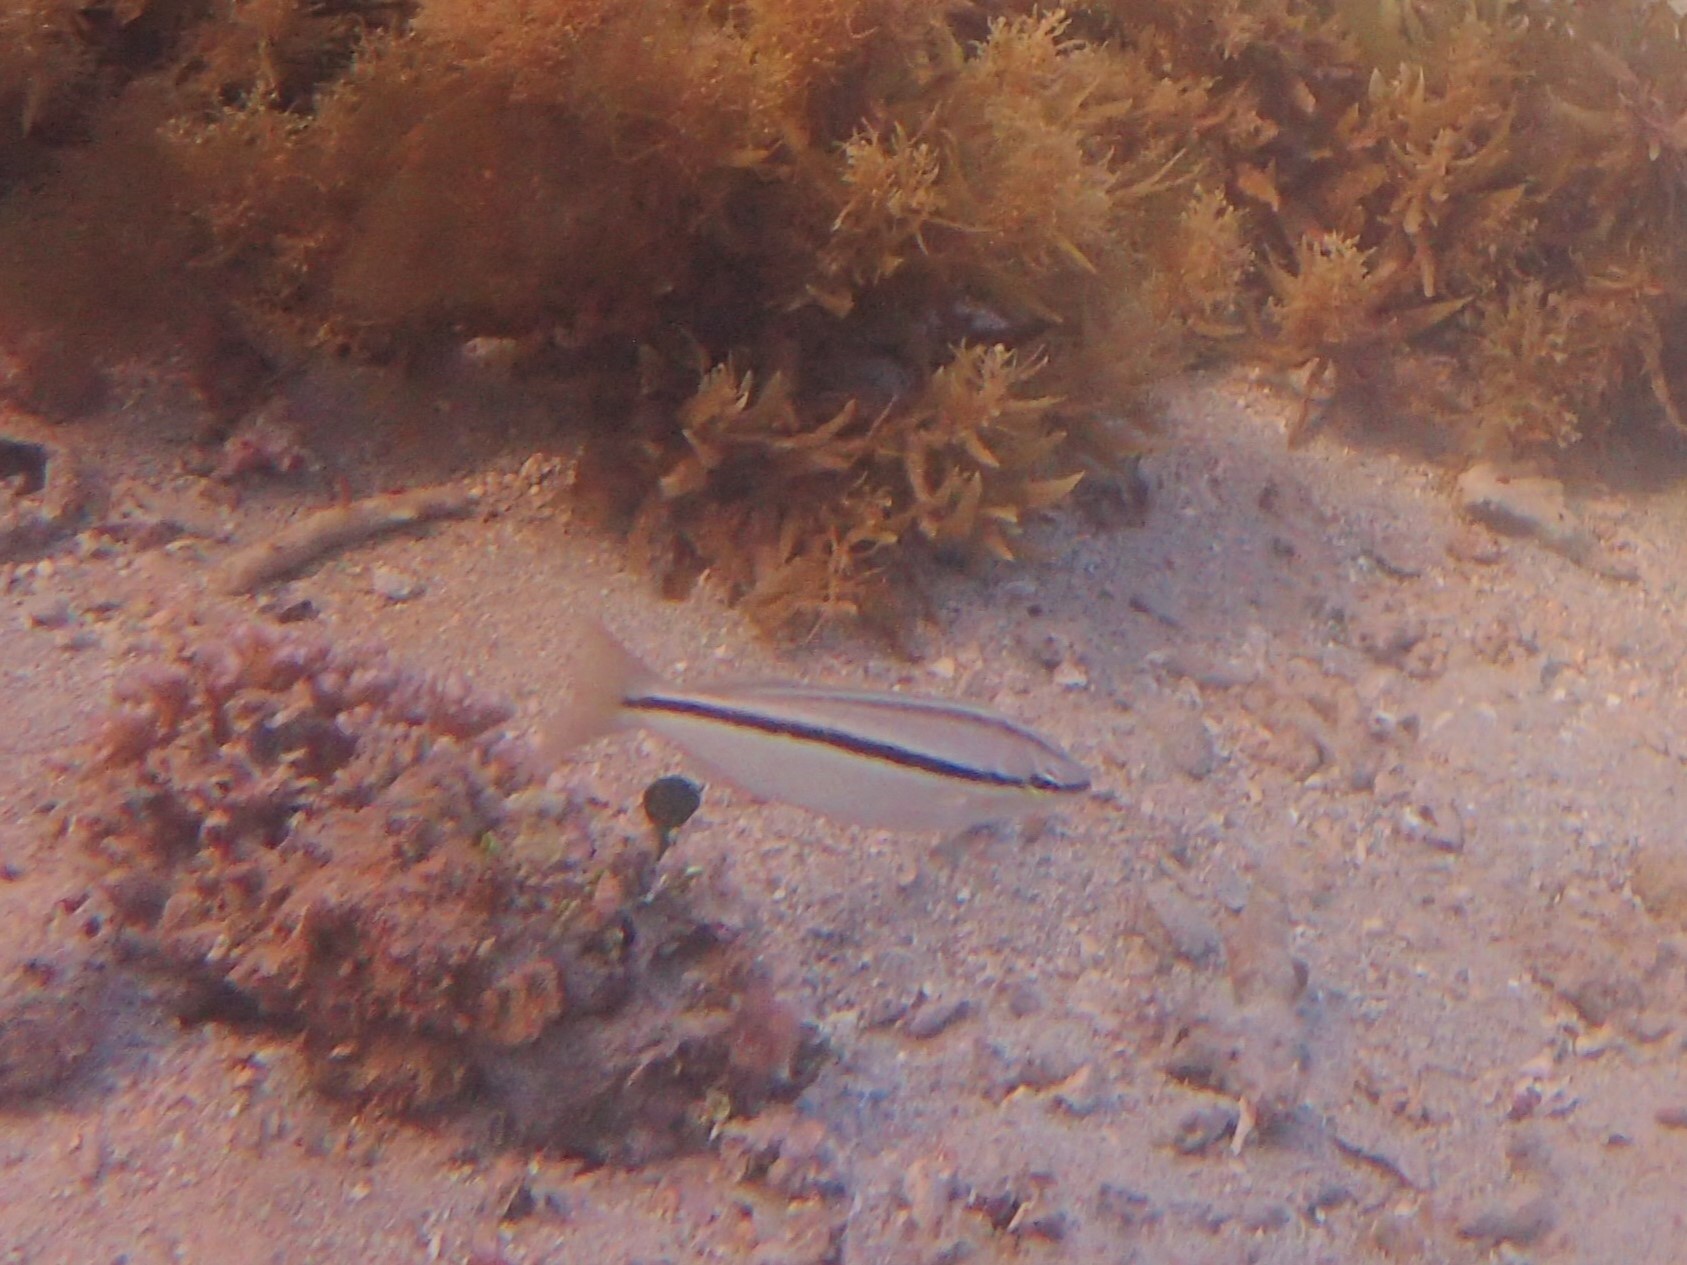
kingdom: Animalia
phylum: Chordata
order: Perciformes
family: Nemipteridae
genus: Pentapodus
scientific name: Pentapodus vitta
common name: Striped whiptail
